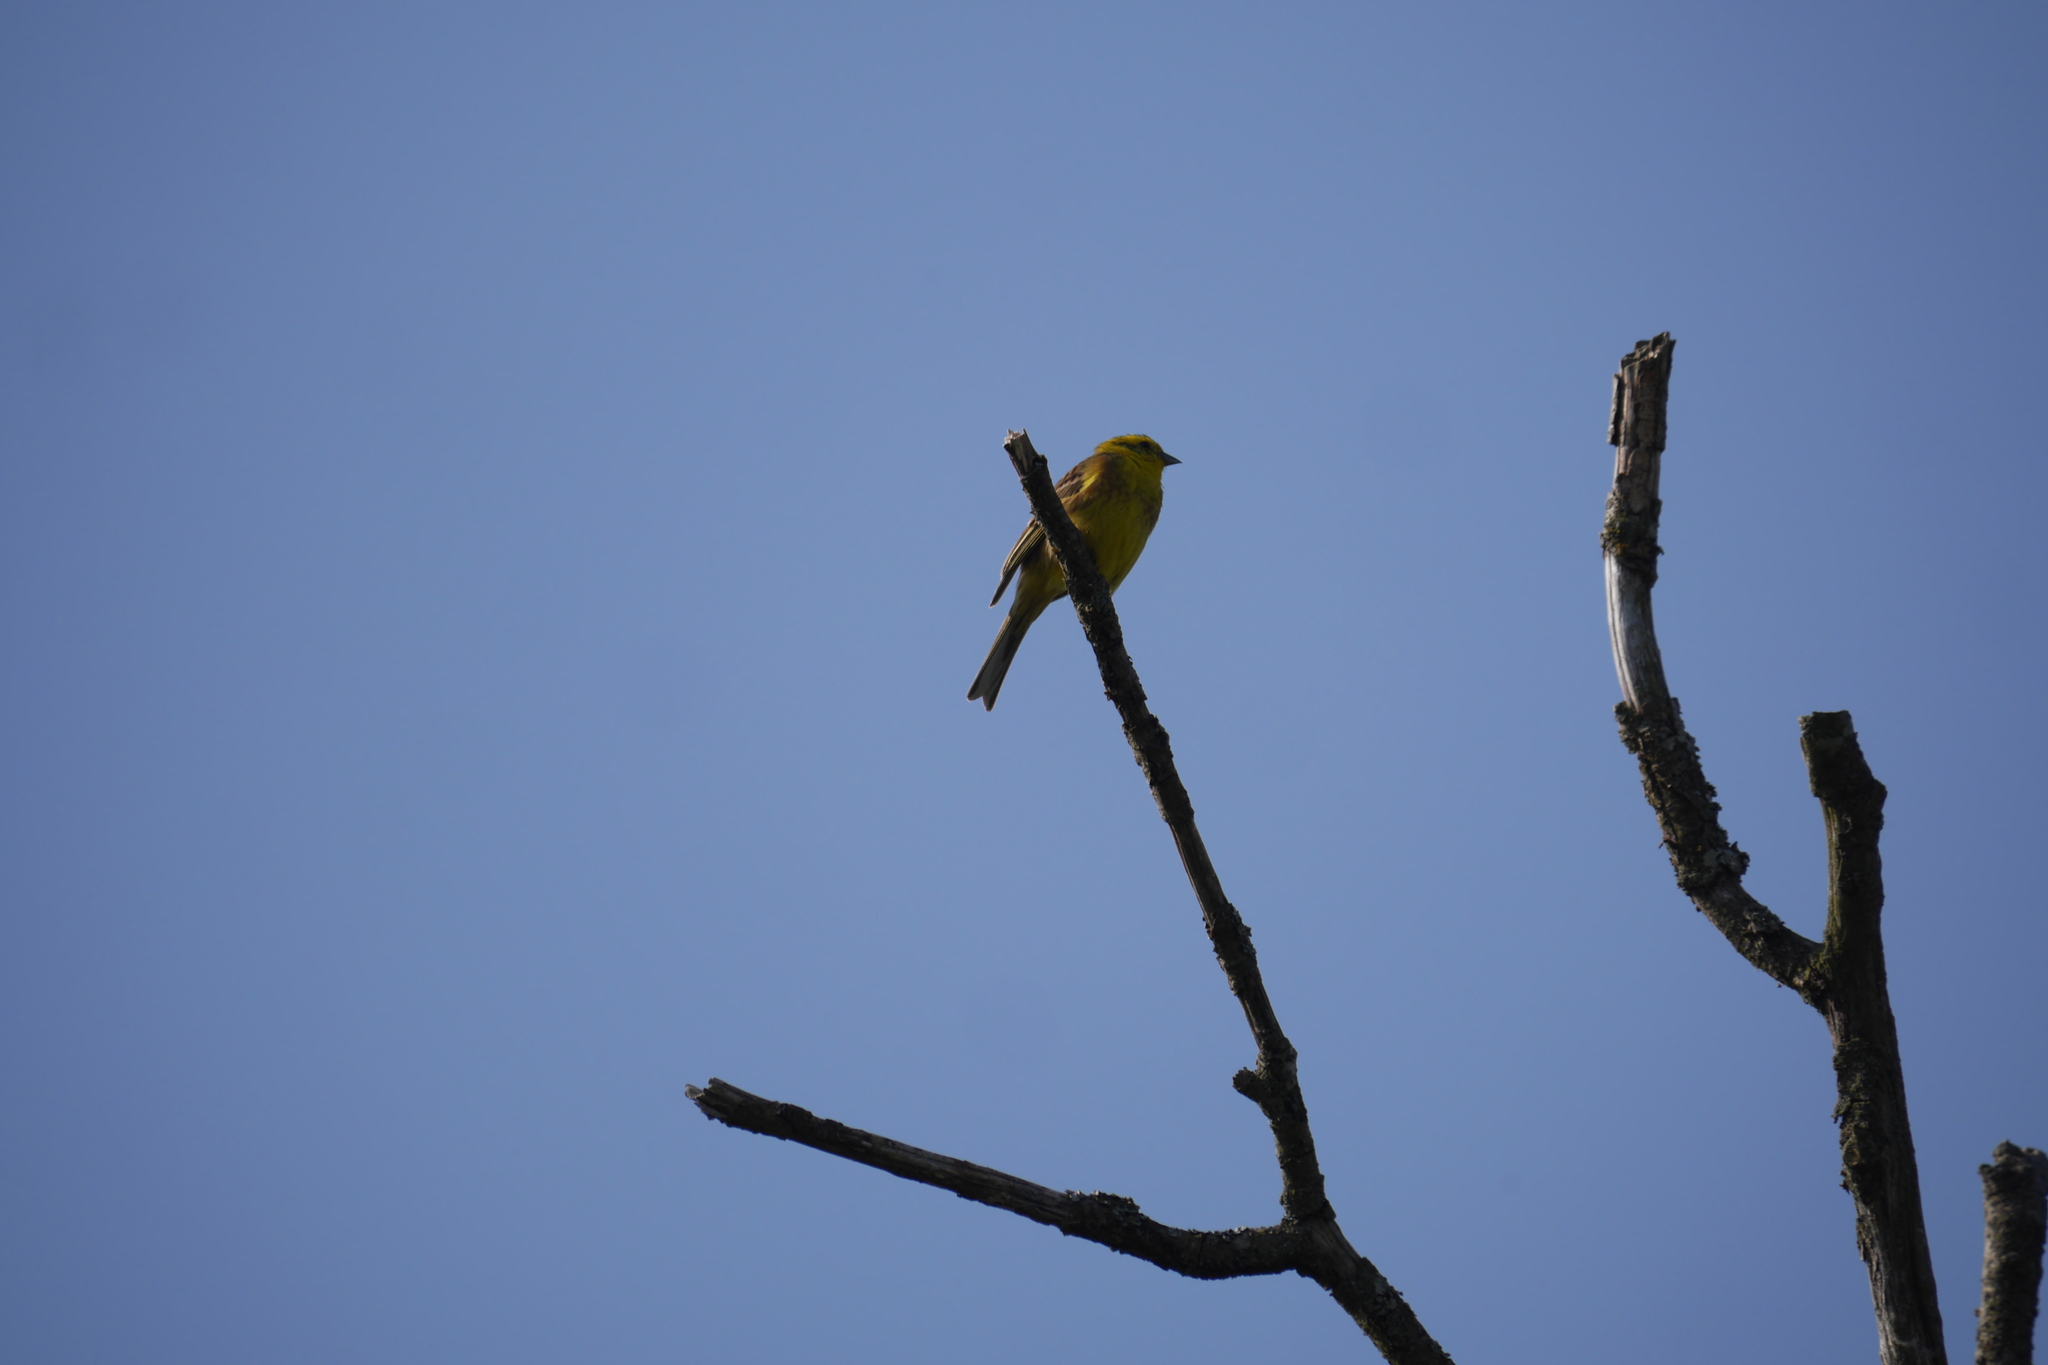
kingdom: Animalia
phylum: Chordata
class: Aves
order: Passeriformes
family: Emberizidae
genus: Emberiza
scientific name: Emberiza citrinella
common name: Yellowhammer
